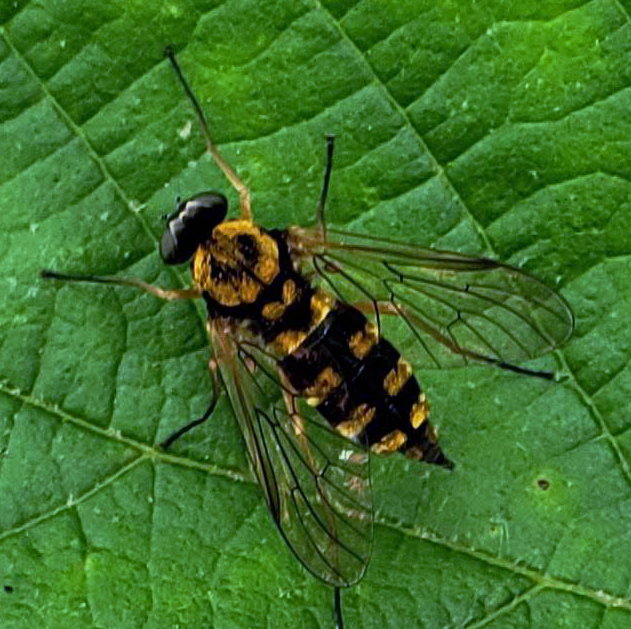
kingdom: Animalia
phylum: Arthropoda
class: Insecta
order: Diptera
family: Rhagionidae
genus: Chrysopilus
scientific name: Chrysopilus ornatus
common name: Ornate snipe fly
